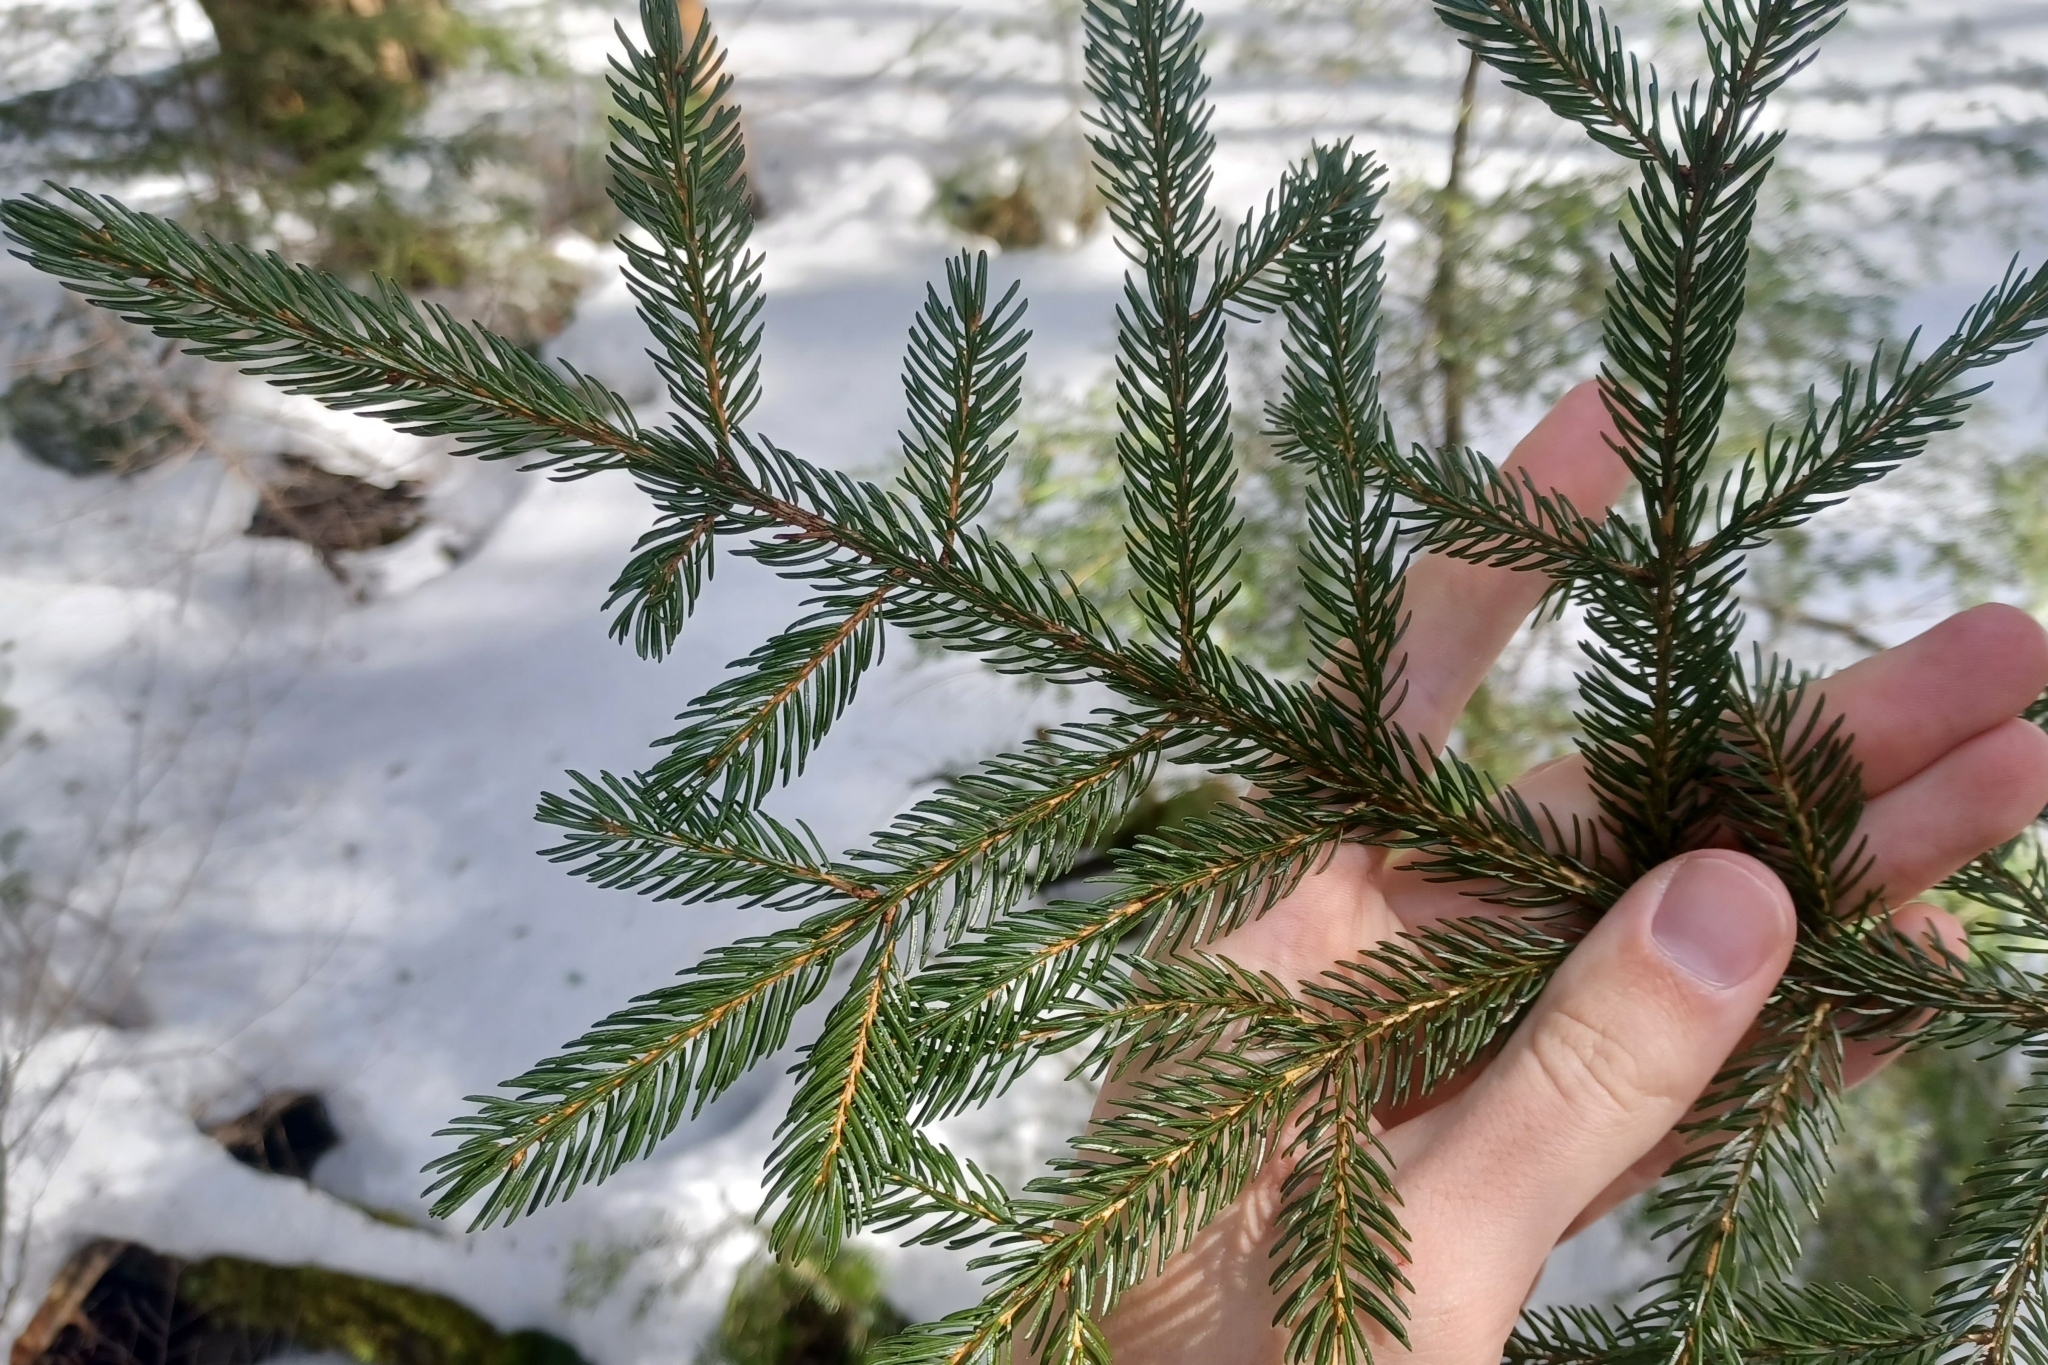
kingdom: Plantae
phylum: Tracheophyta
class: Pinopsida
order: Pinales
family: Pinaceae
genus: Picea
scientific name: Picea rubens
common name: Red spruce
